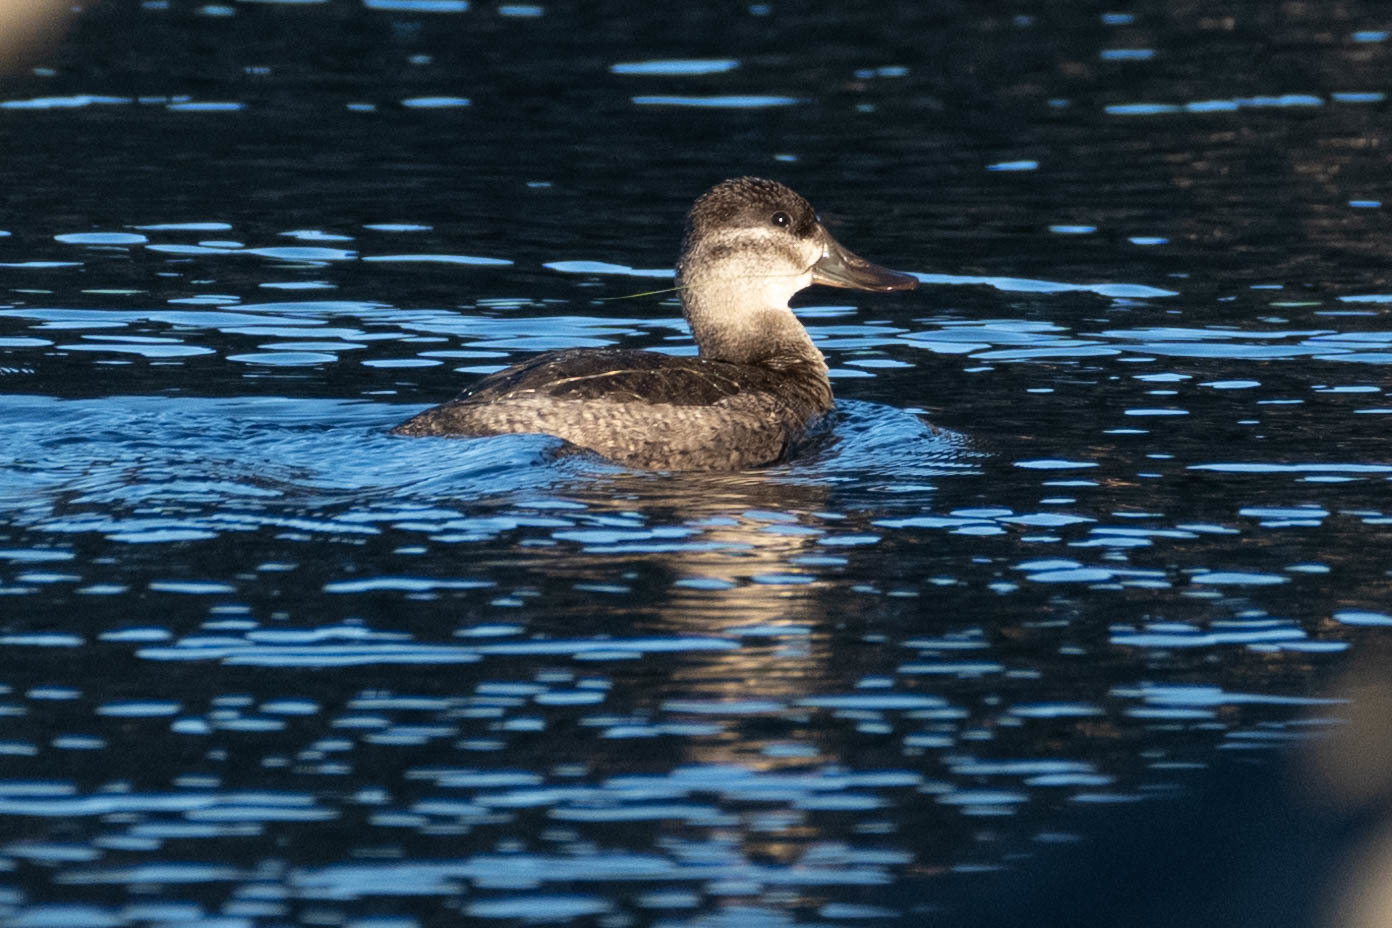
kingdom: Animalia
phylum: Chordata
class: Aves
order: Anseriformes
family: Anatidae
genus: Oxyura
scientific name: Oxyura jamaicensis
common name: Ruddy duck
